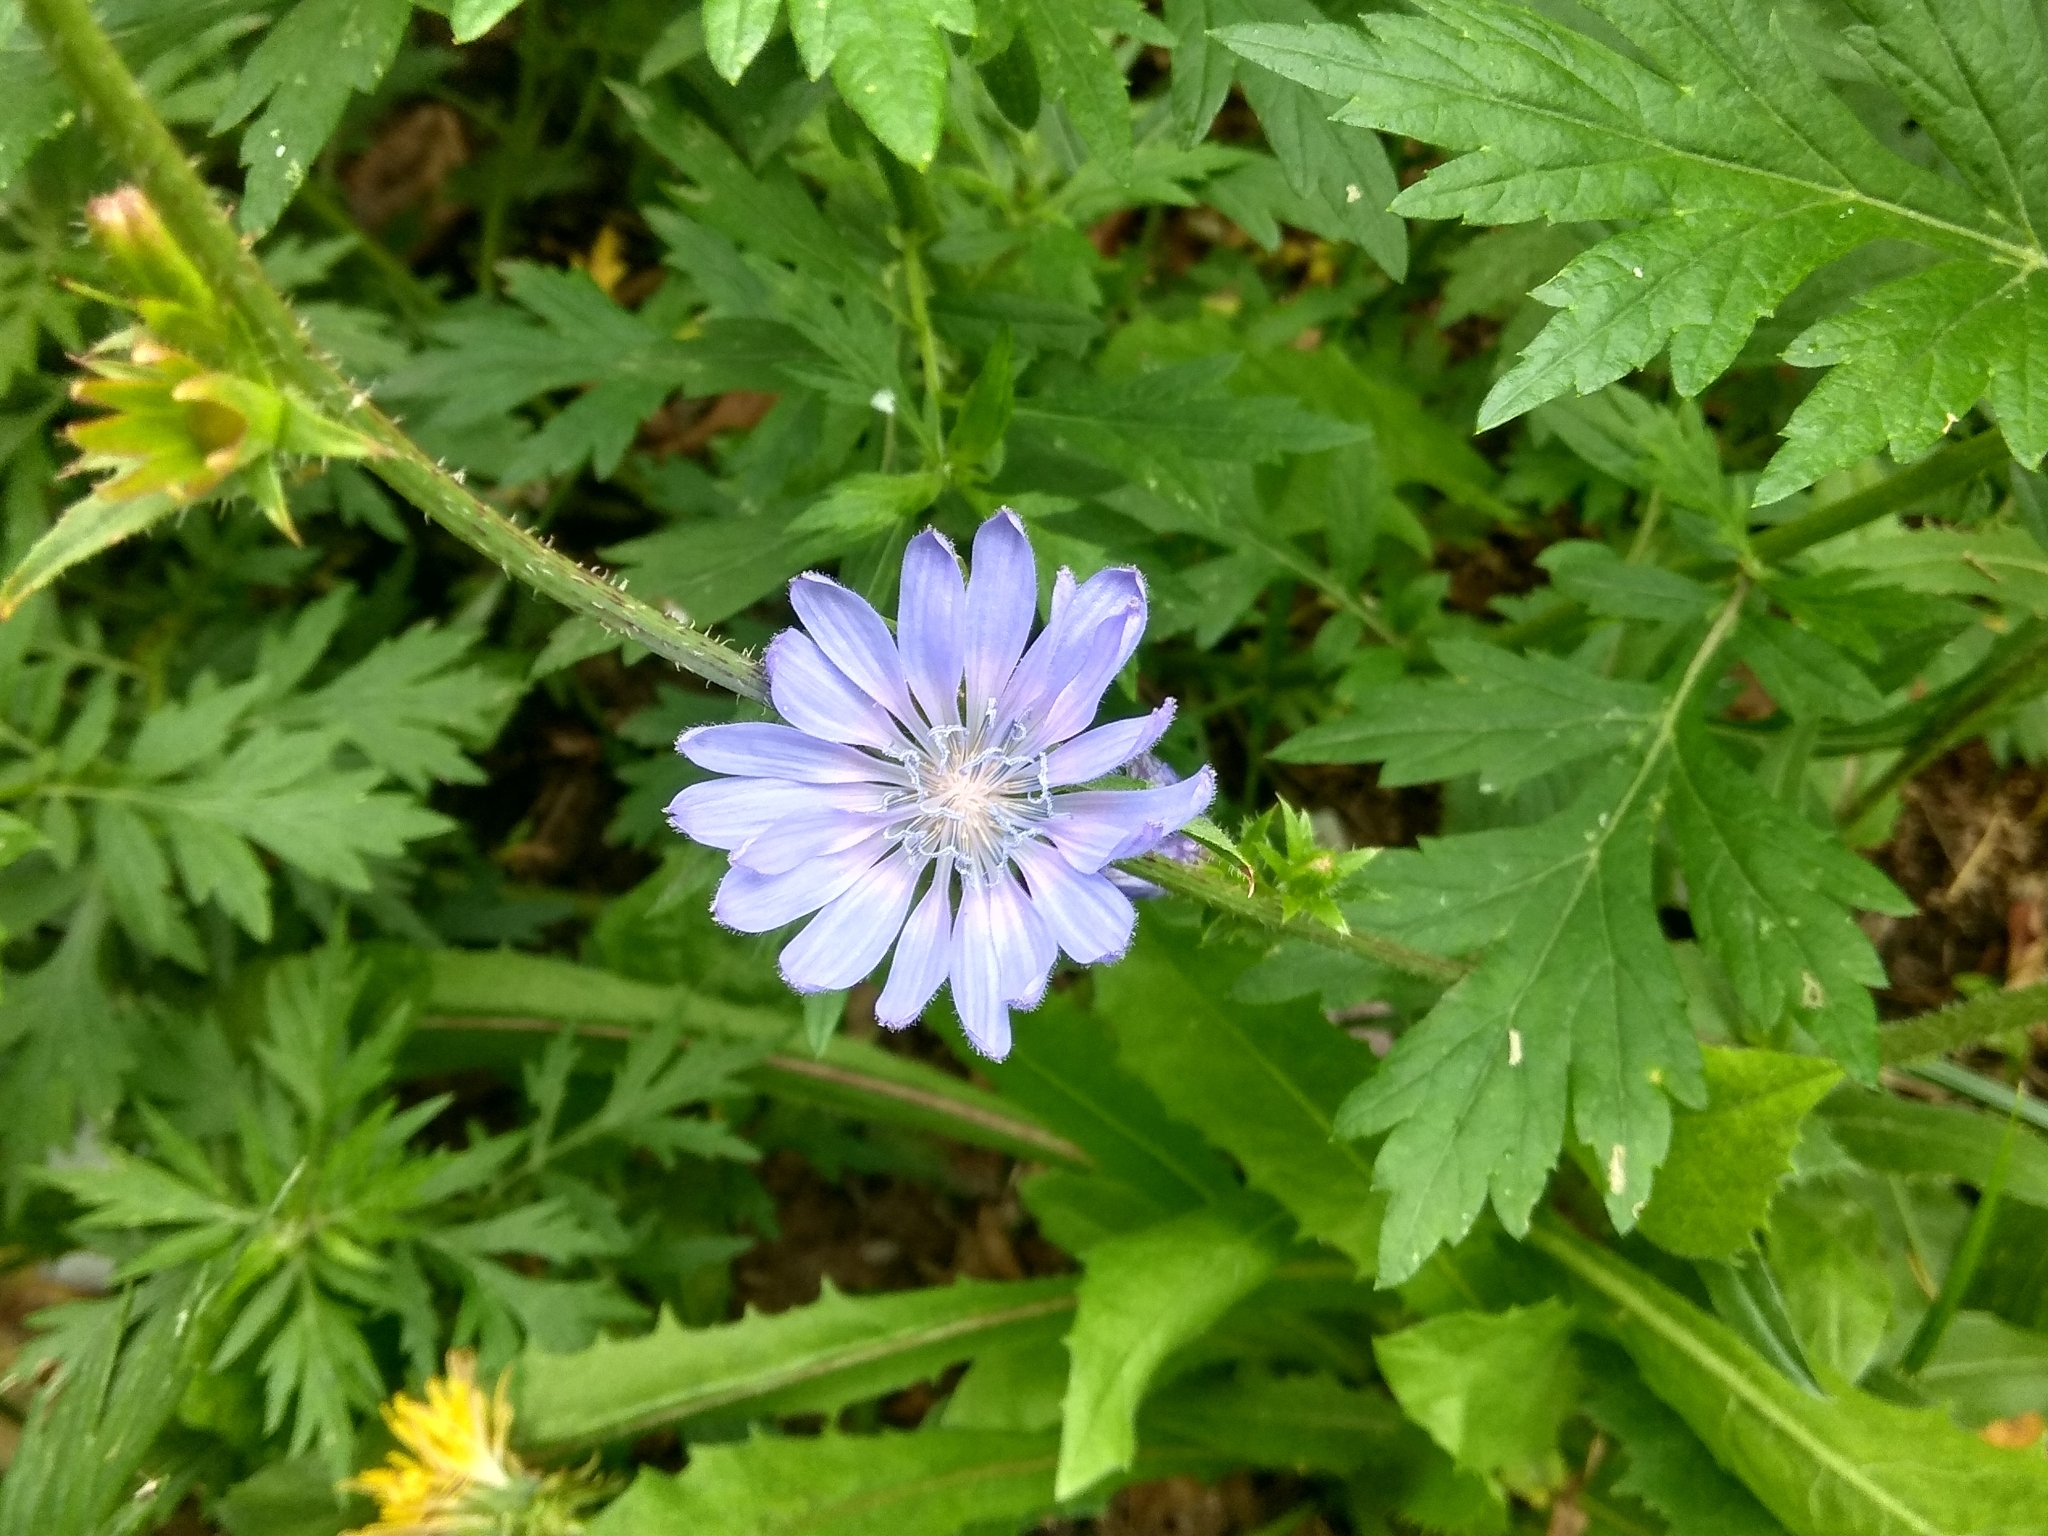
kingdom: Plantae
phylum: Tracheophyta
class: Magnoliopsida
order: Asterales
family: Asteraceae
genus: Cichorium
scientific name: Cichorium intybus
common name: Chicory
